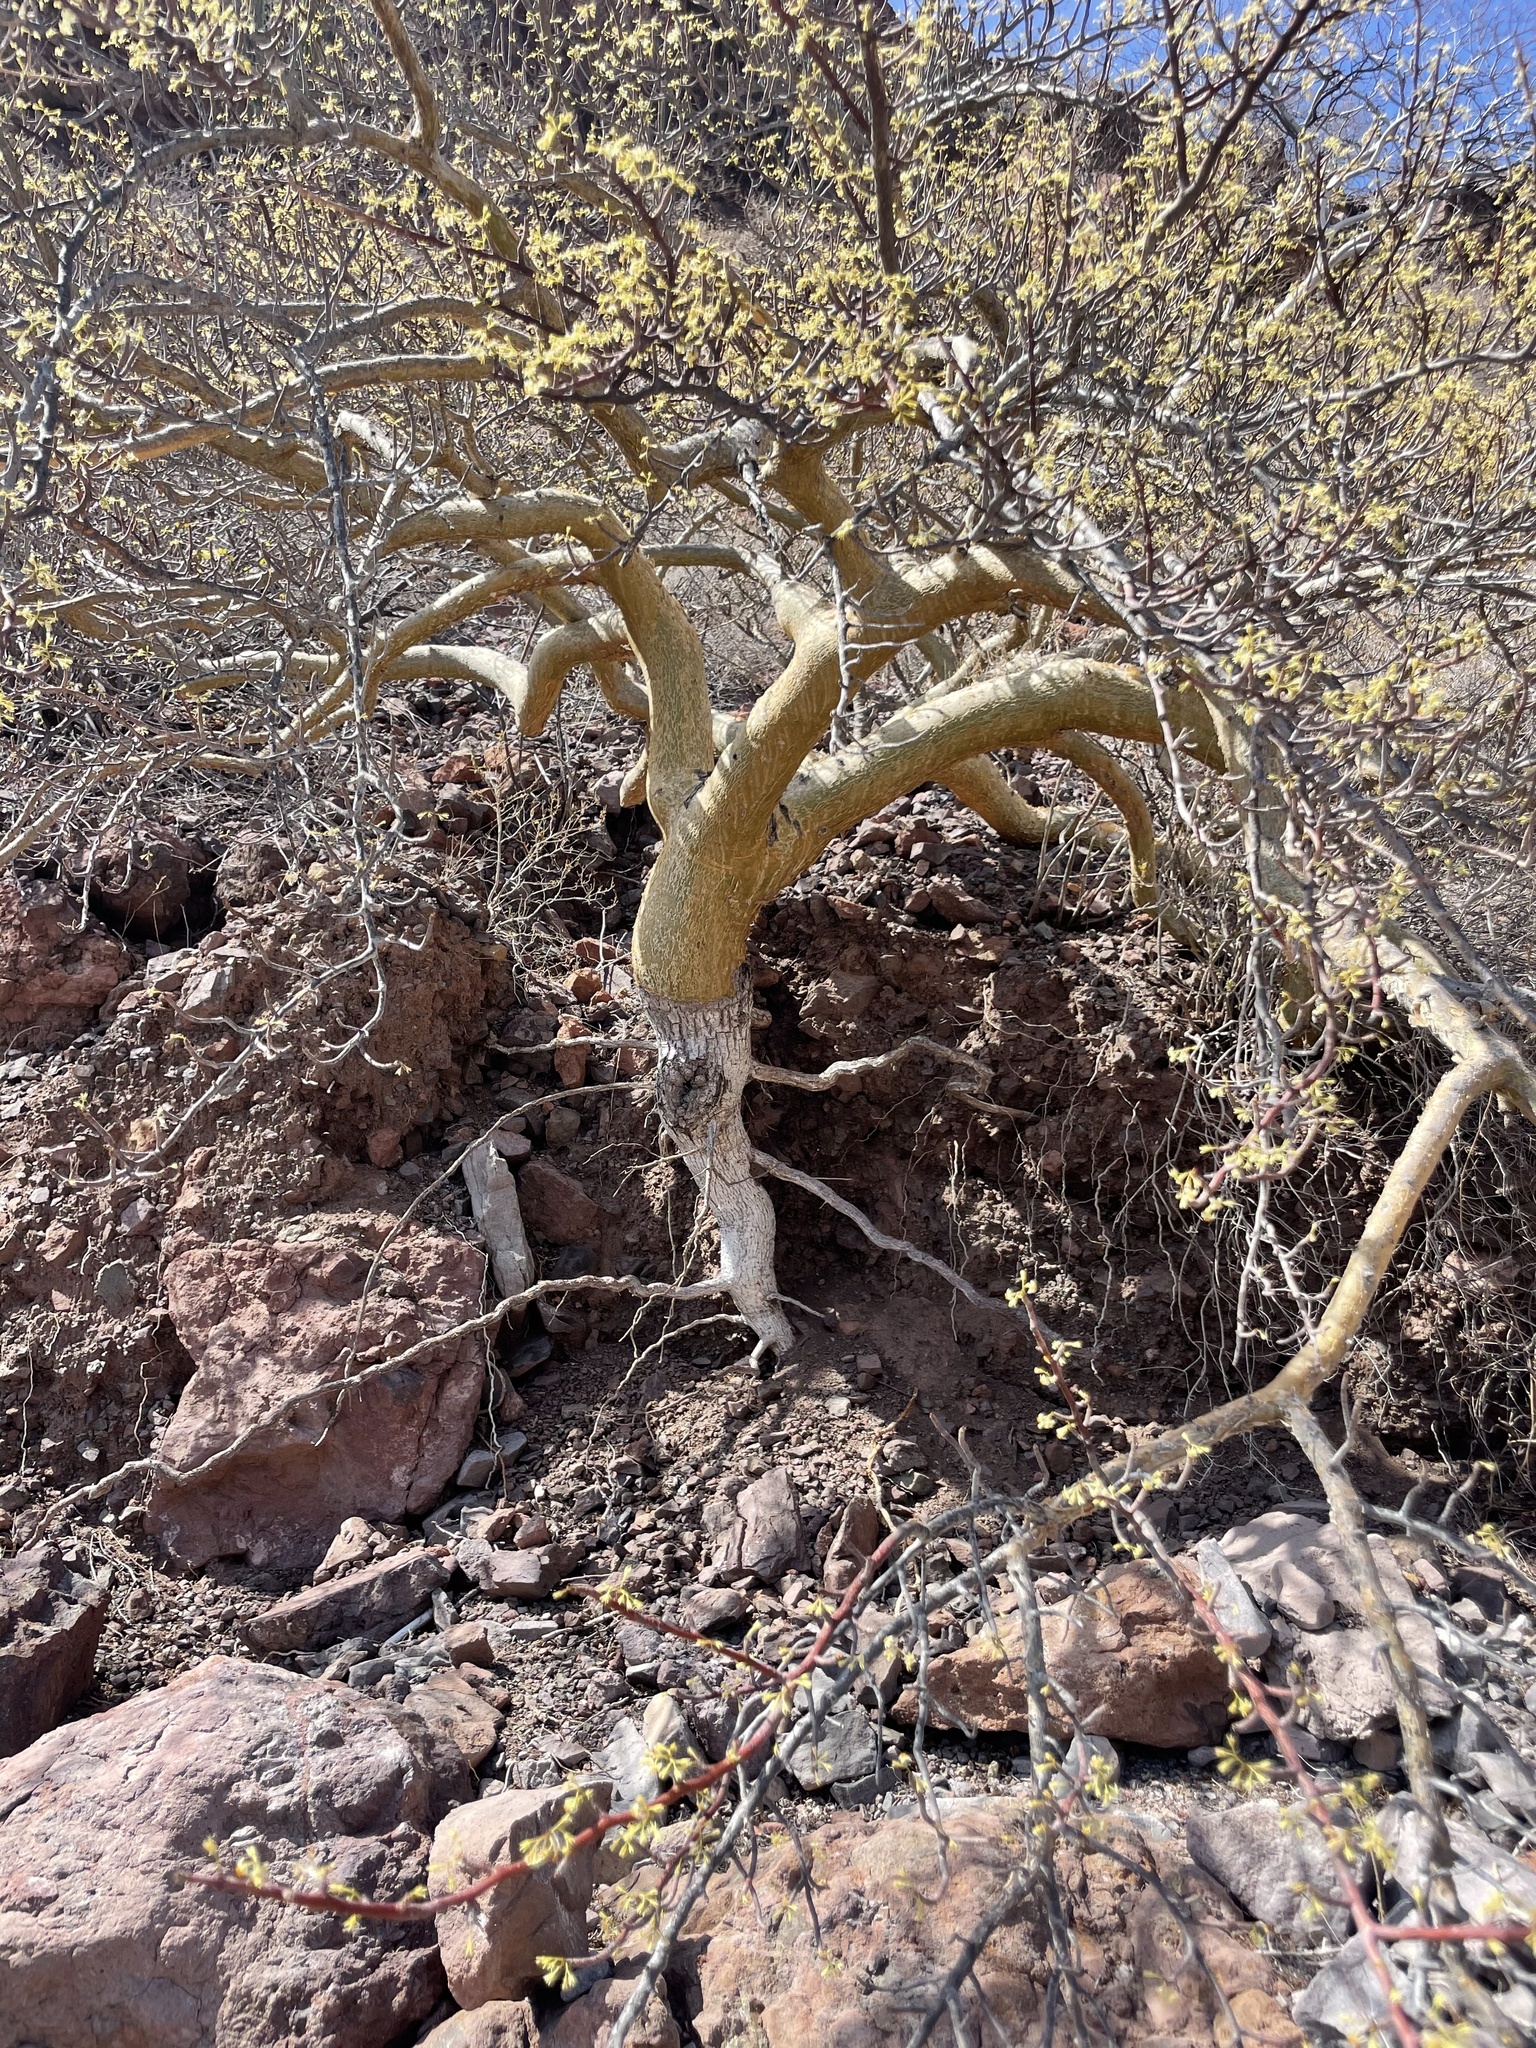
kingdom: Plantae
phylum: Tracheophyta
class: Magnoliopsida
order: Sapindales
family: Burseraceae
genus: Bursera
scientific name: Bursera microphylla
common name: Elephant tree
